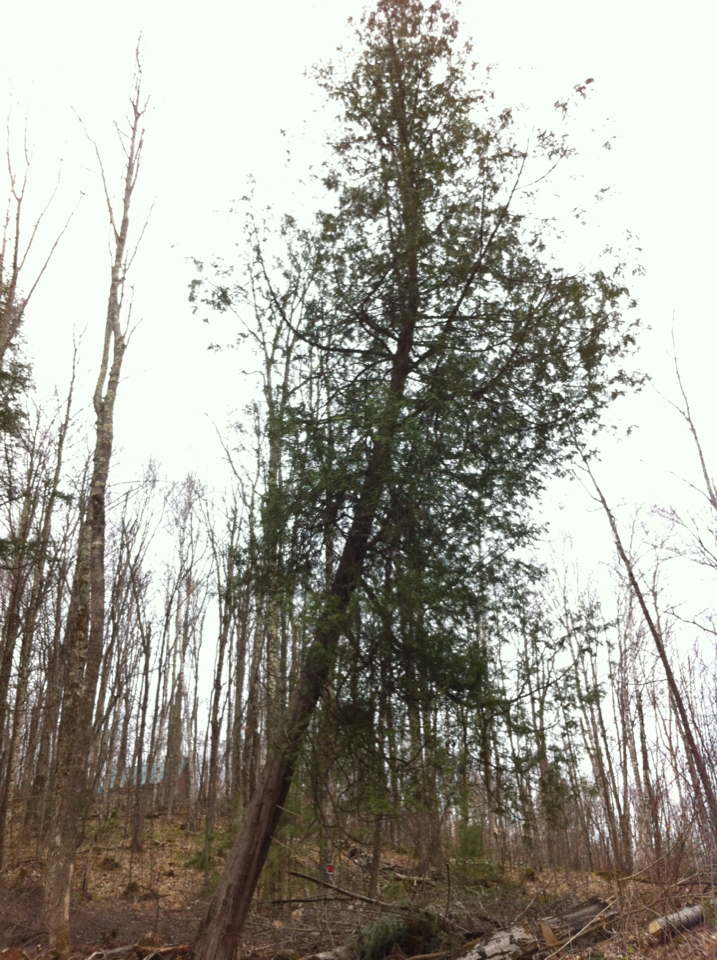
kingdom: Plantae
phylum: Tracheophyta
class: Pinopsida
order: Pinales
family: Cupressaceae
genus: Thuja
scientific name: Thuja occidentalis
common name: Northern white-cedar
